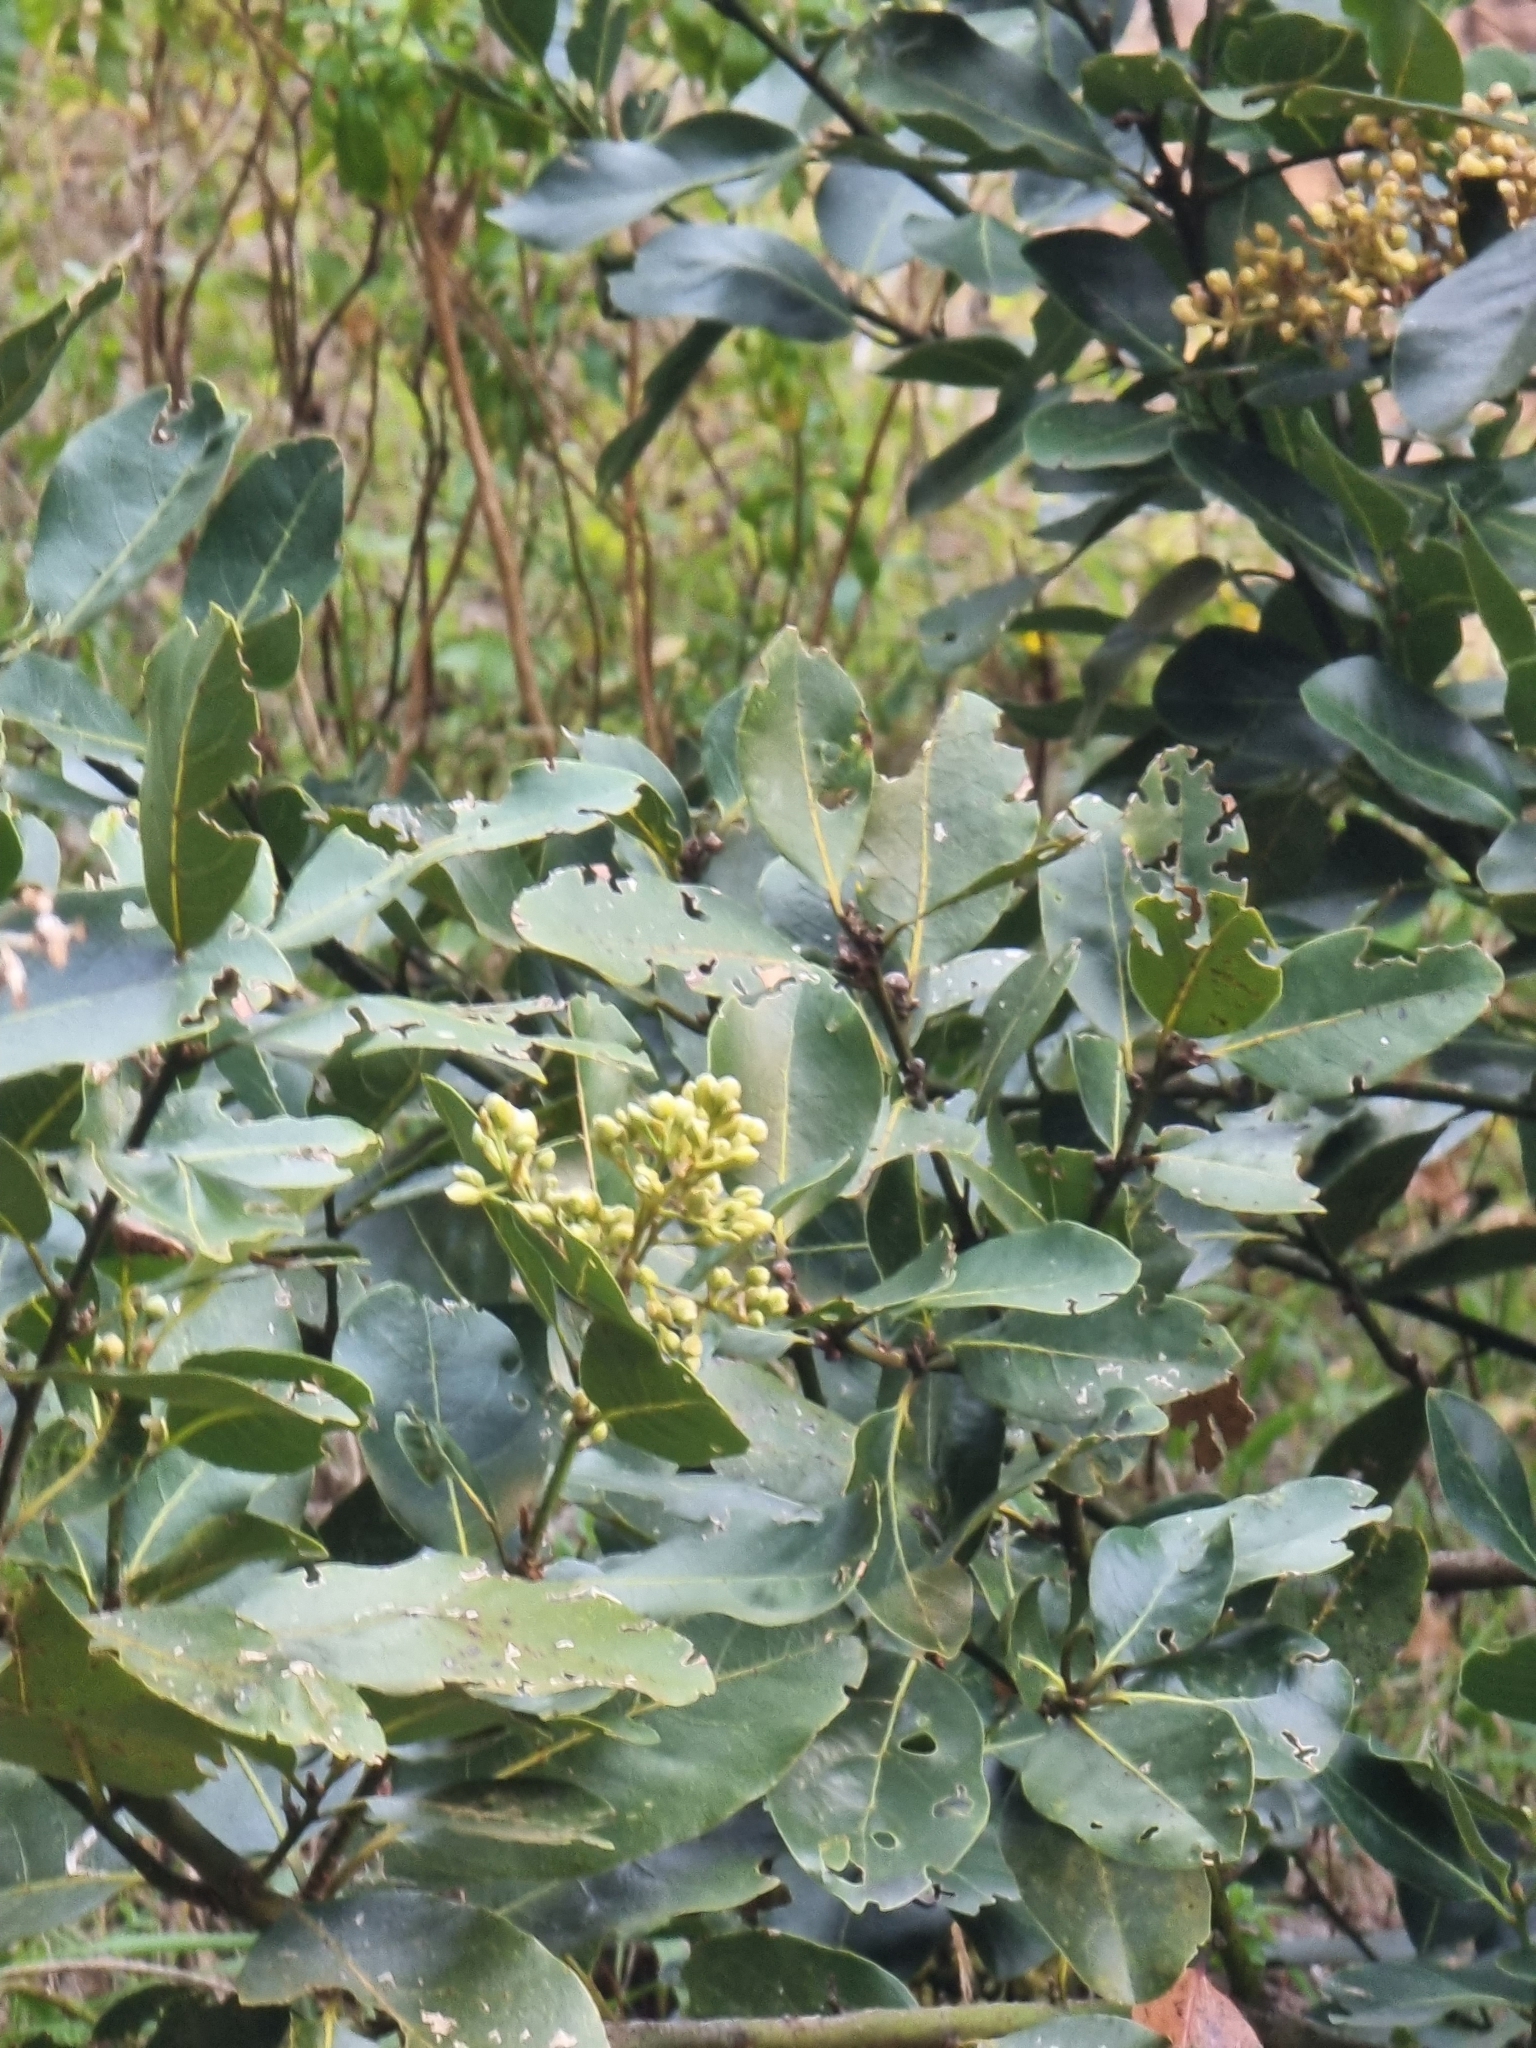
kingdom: Plantae
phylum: Tracheophyta
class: Magnoliopsida
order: Laurales
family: Lauraceae
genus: Laurus
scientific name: Laurus novocanariensis
